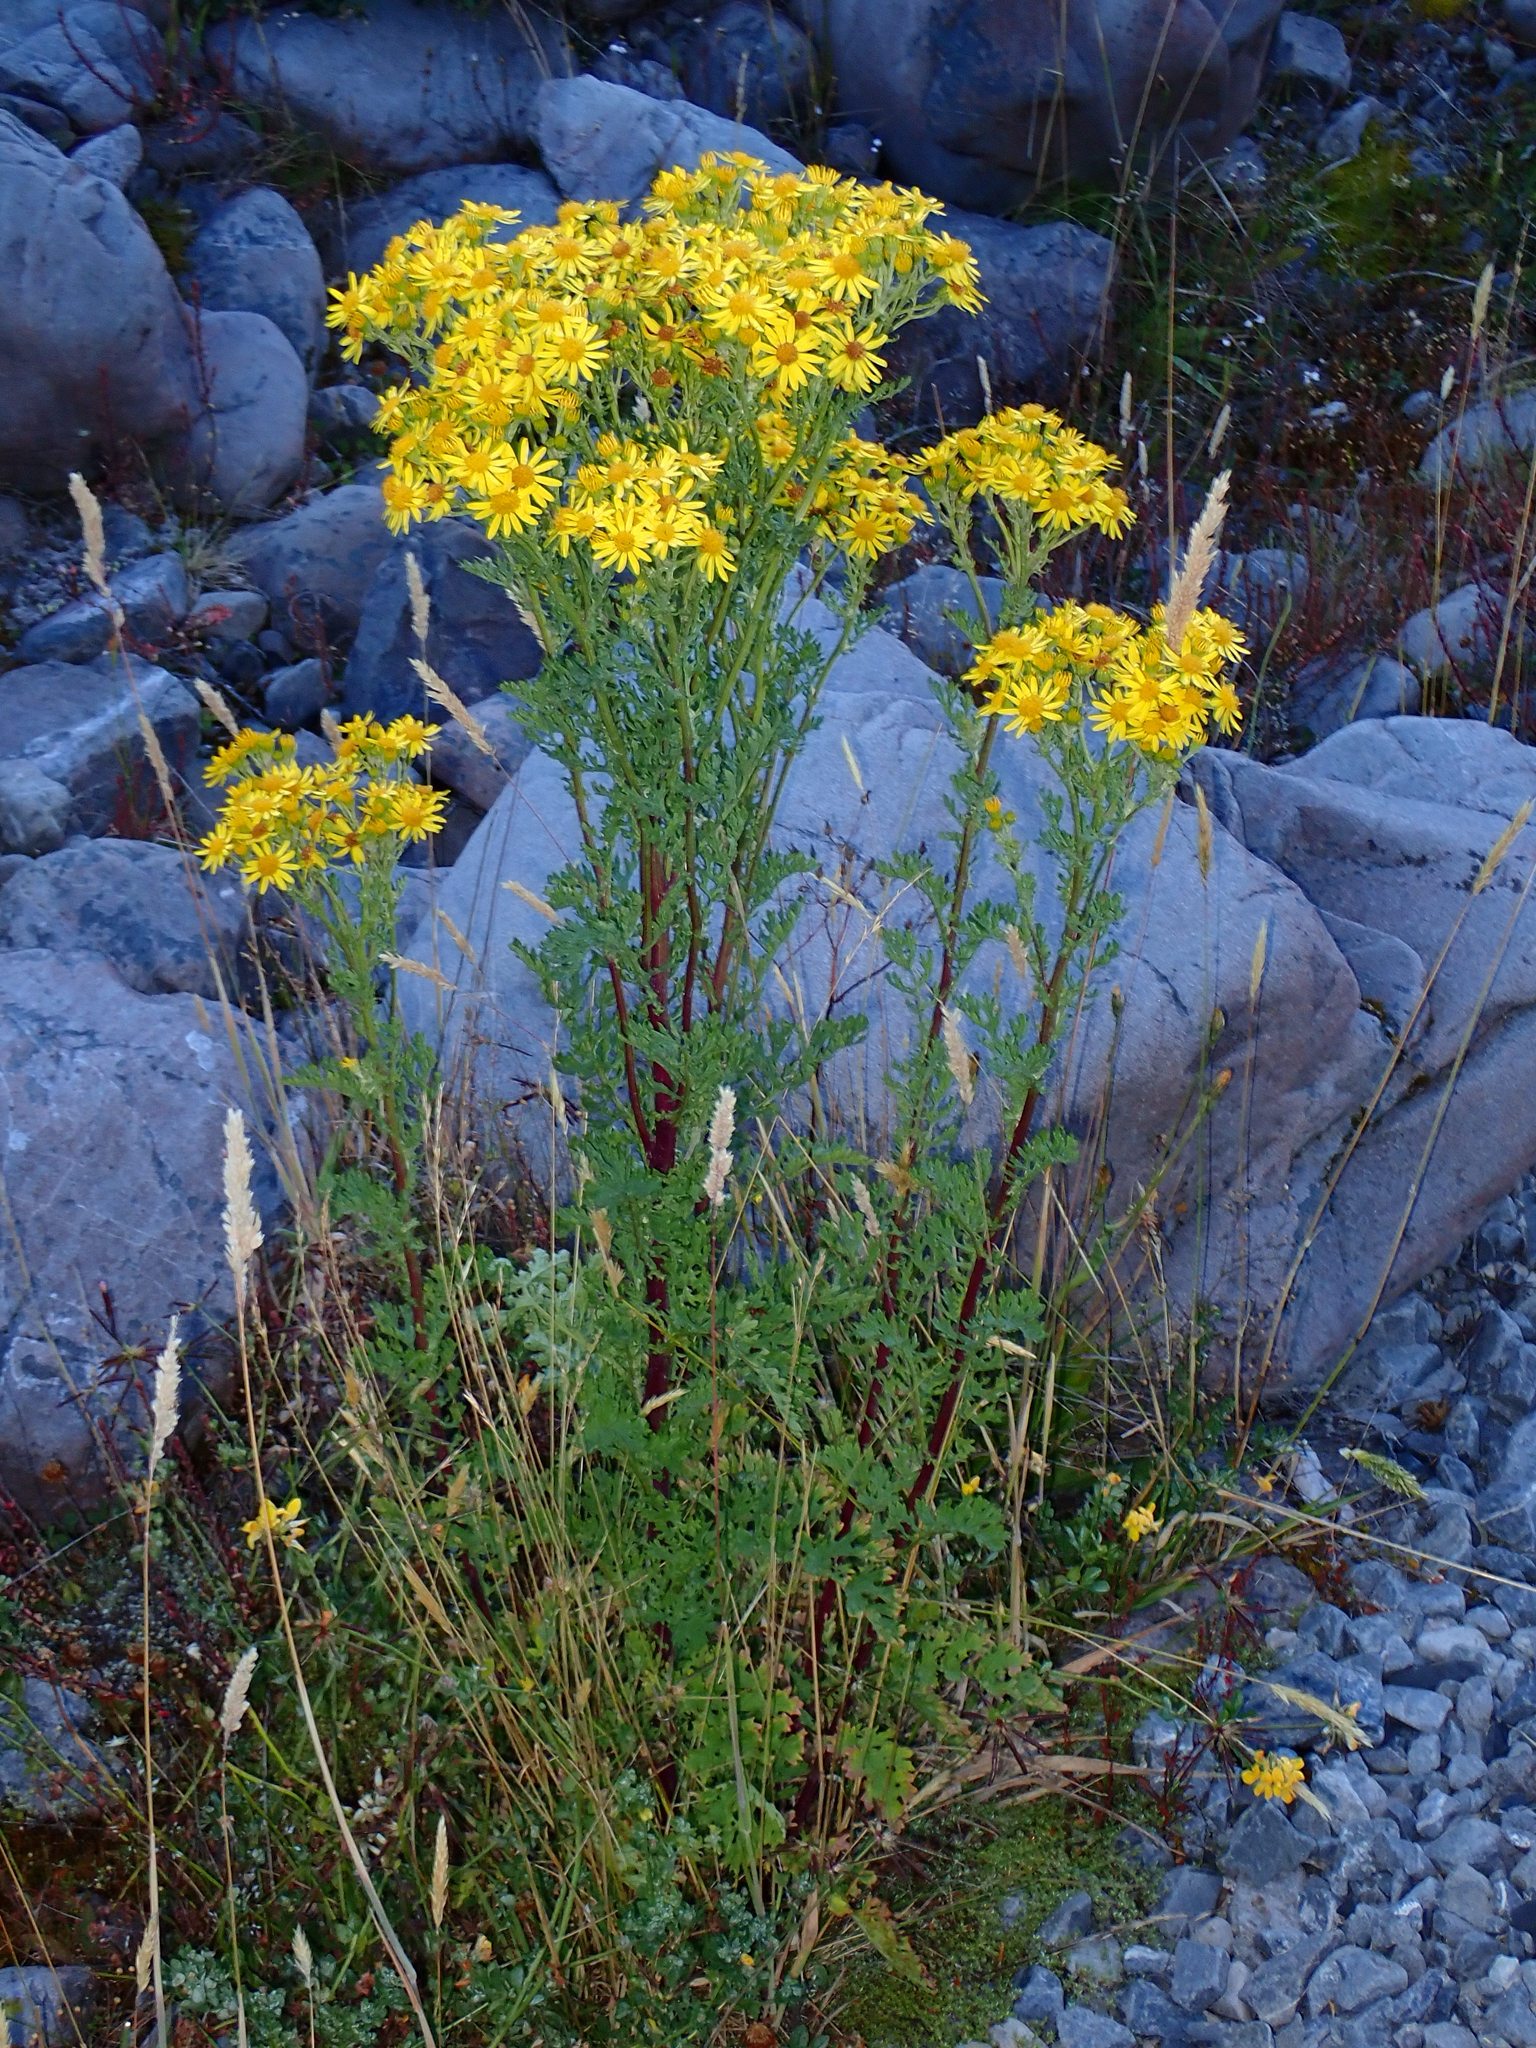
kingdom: Plantae
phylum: Tracheophyta
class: Magnoliopsida
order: Asterales
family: Asteraceae
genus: Jacobaea
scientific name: Jacobaea vulgaris
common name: Stinking willie
